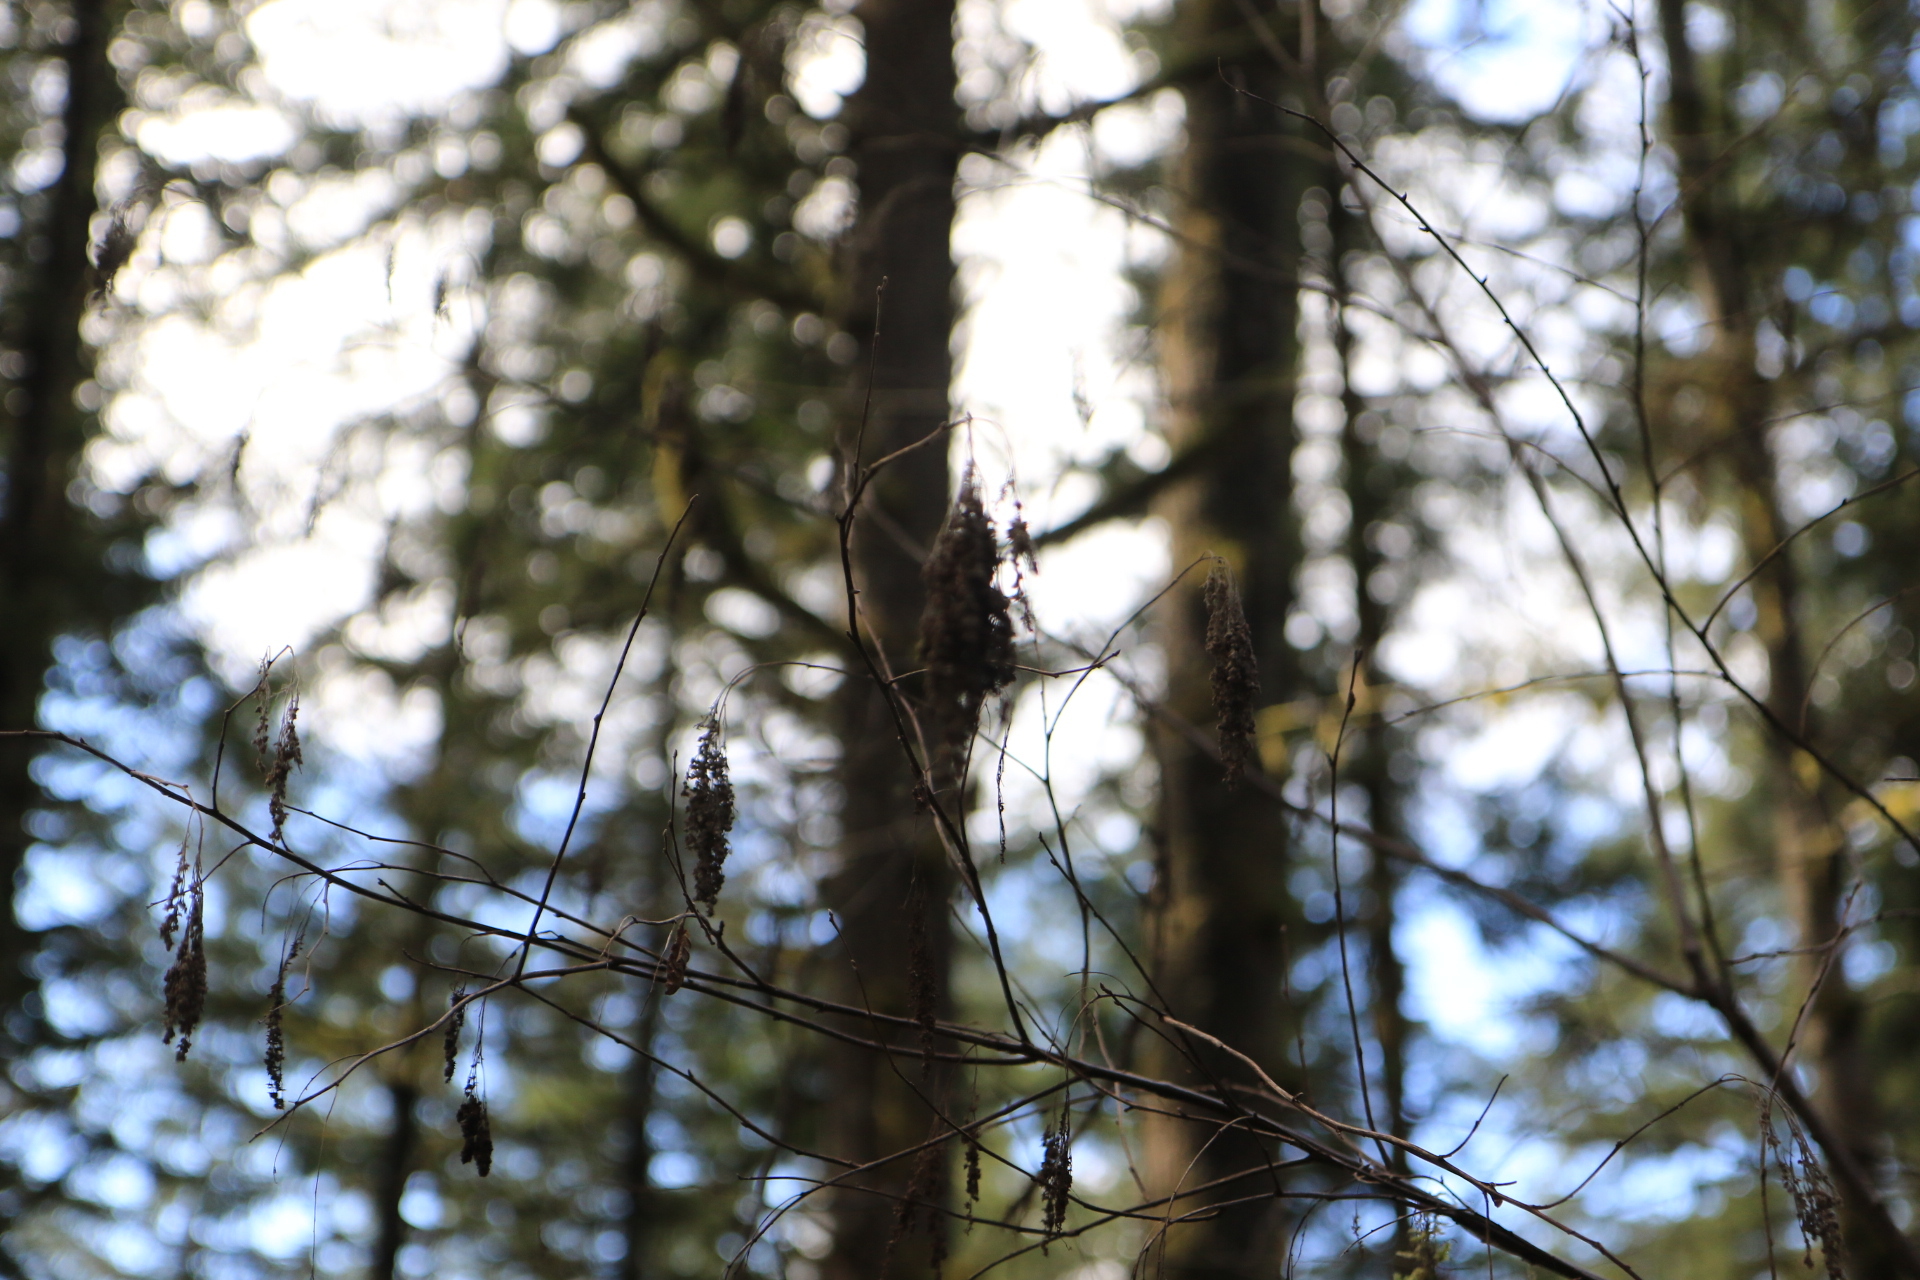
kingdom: Plantae
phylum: Tracheophyta
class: Magnoliopsida
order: Rosales
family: Rosaceae
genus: Holodiscus
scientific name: Holodiscus discolor
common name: Oceanspray
